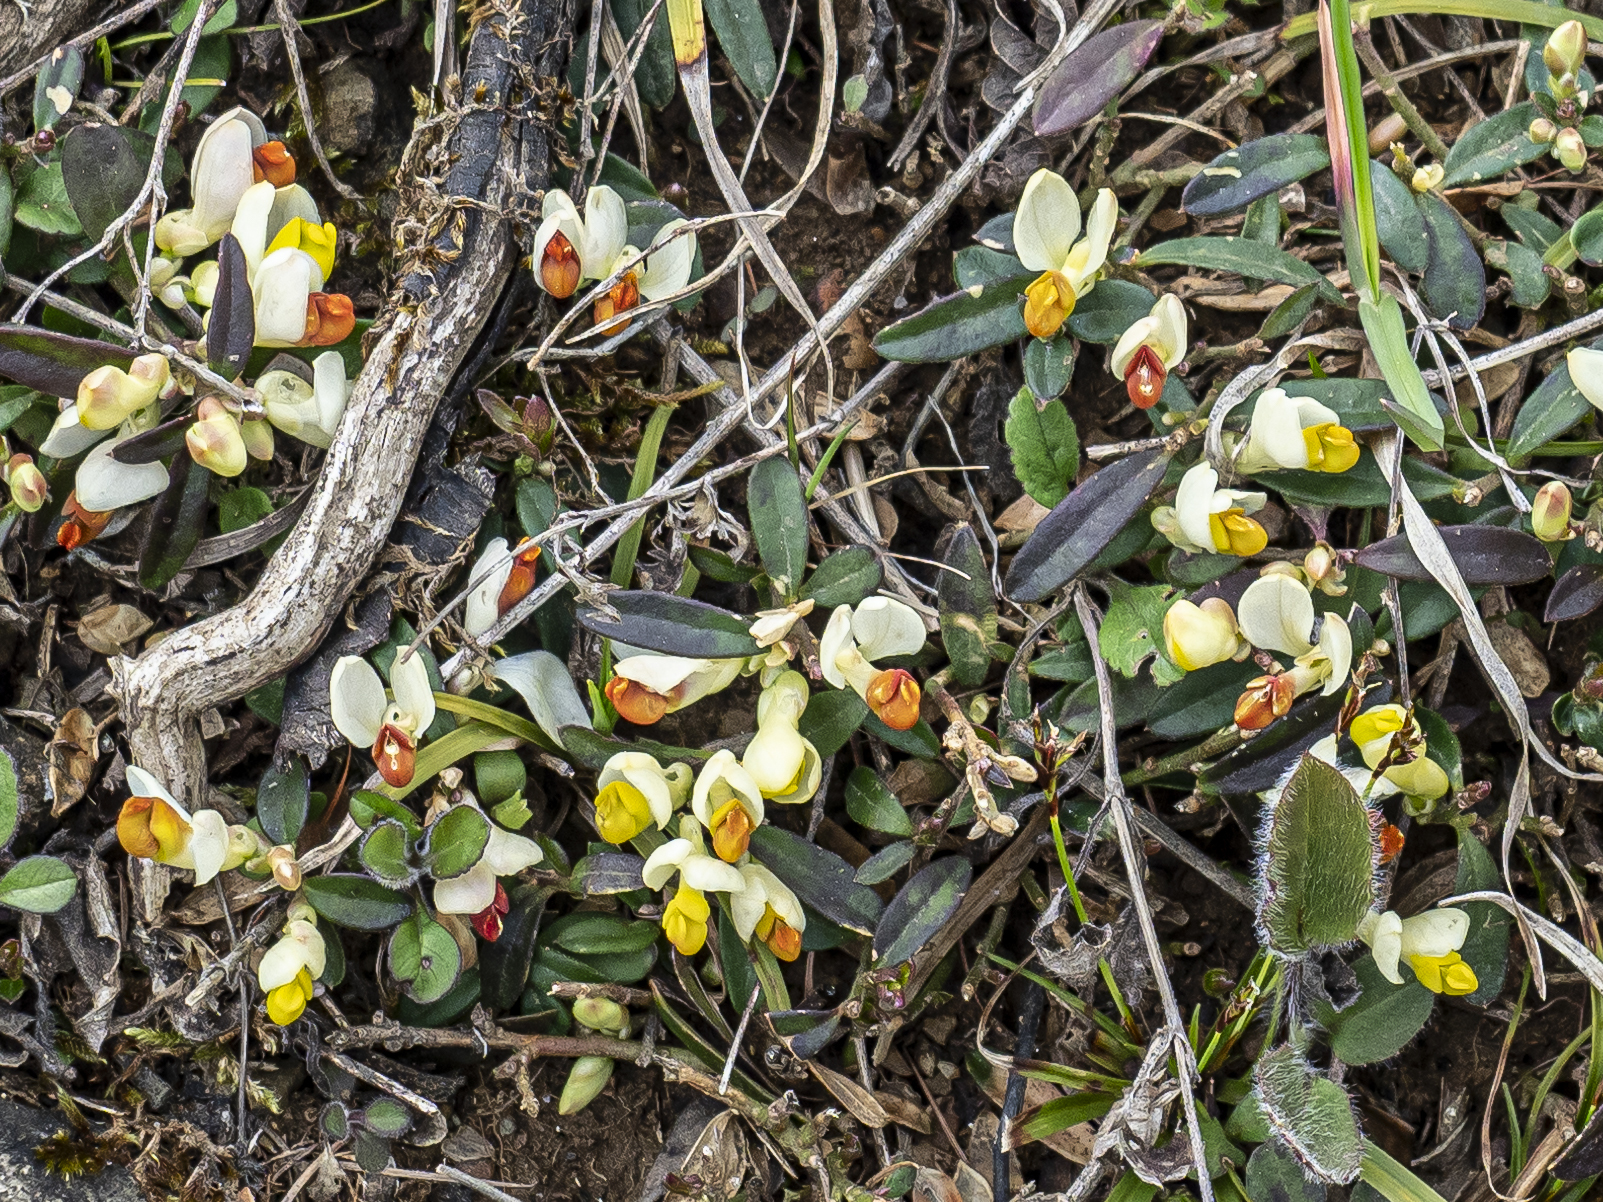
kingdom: Plantae
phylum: Tracheophyta
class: Magnoliopsida
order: Fabales
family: Polygalaceae
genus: Polygaloides
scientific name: Polygaloides chamaebuxus
